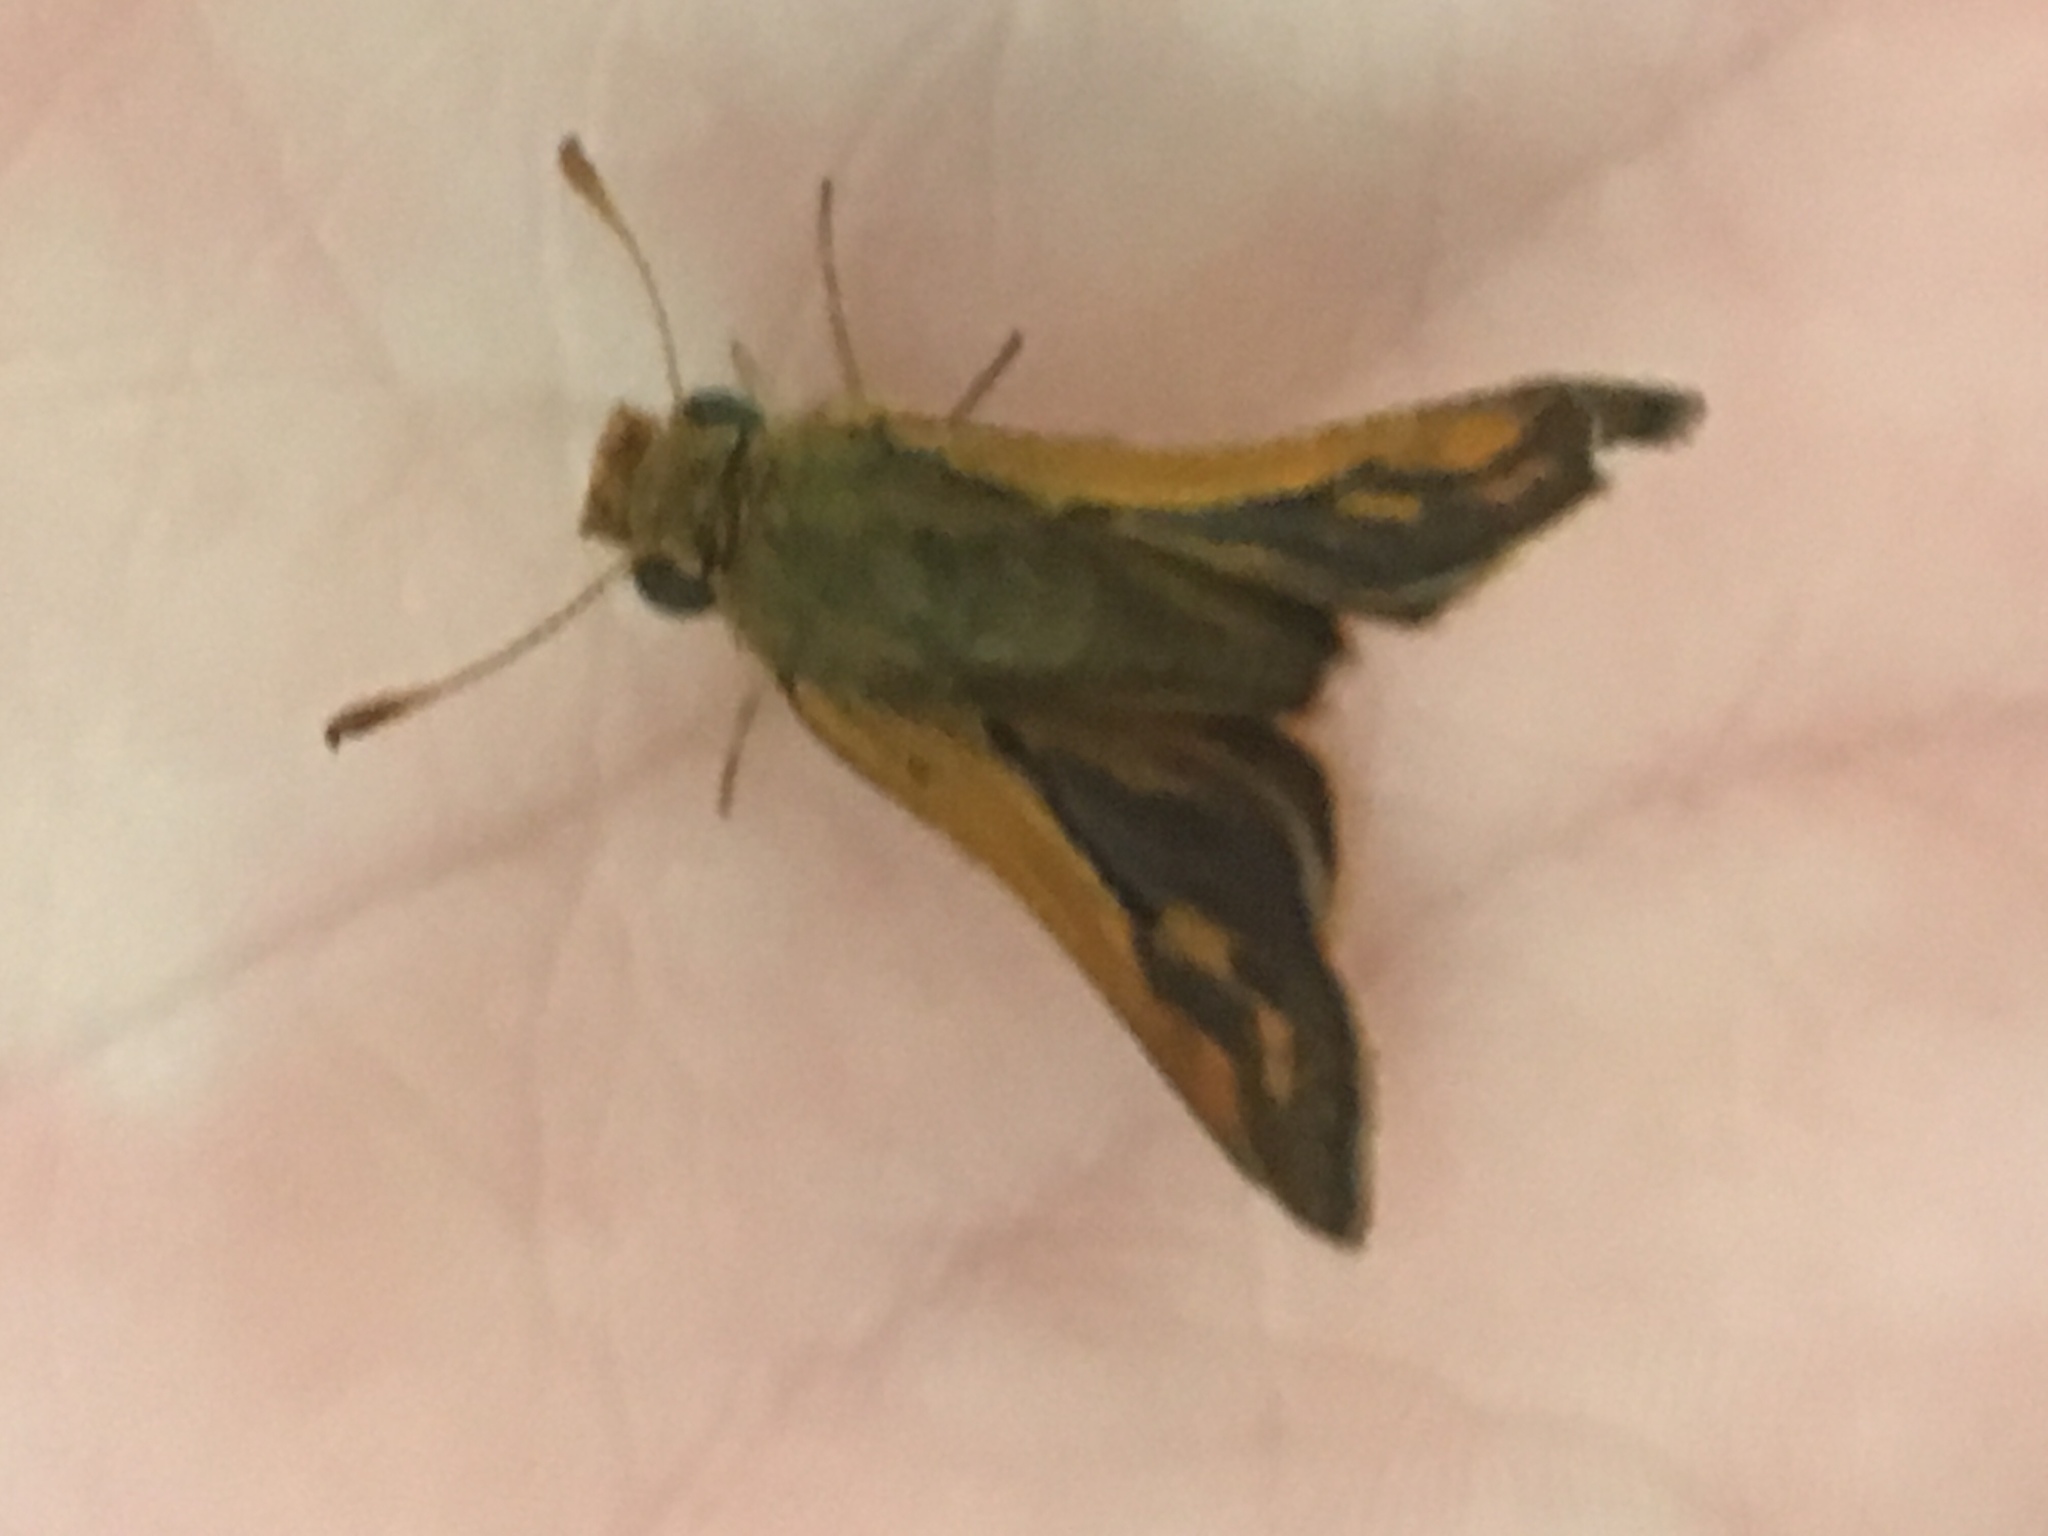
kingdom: Animalia
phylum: Arthropoda
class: Insecta
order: Lepidoptera
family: Hesperiidae
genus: Polites
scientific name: Polites coras
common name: Peck's skipper
